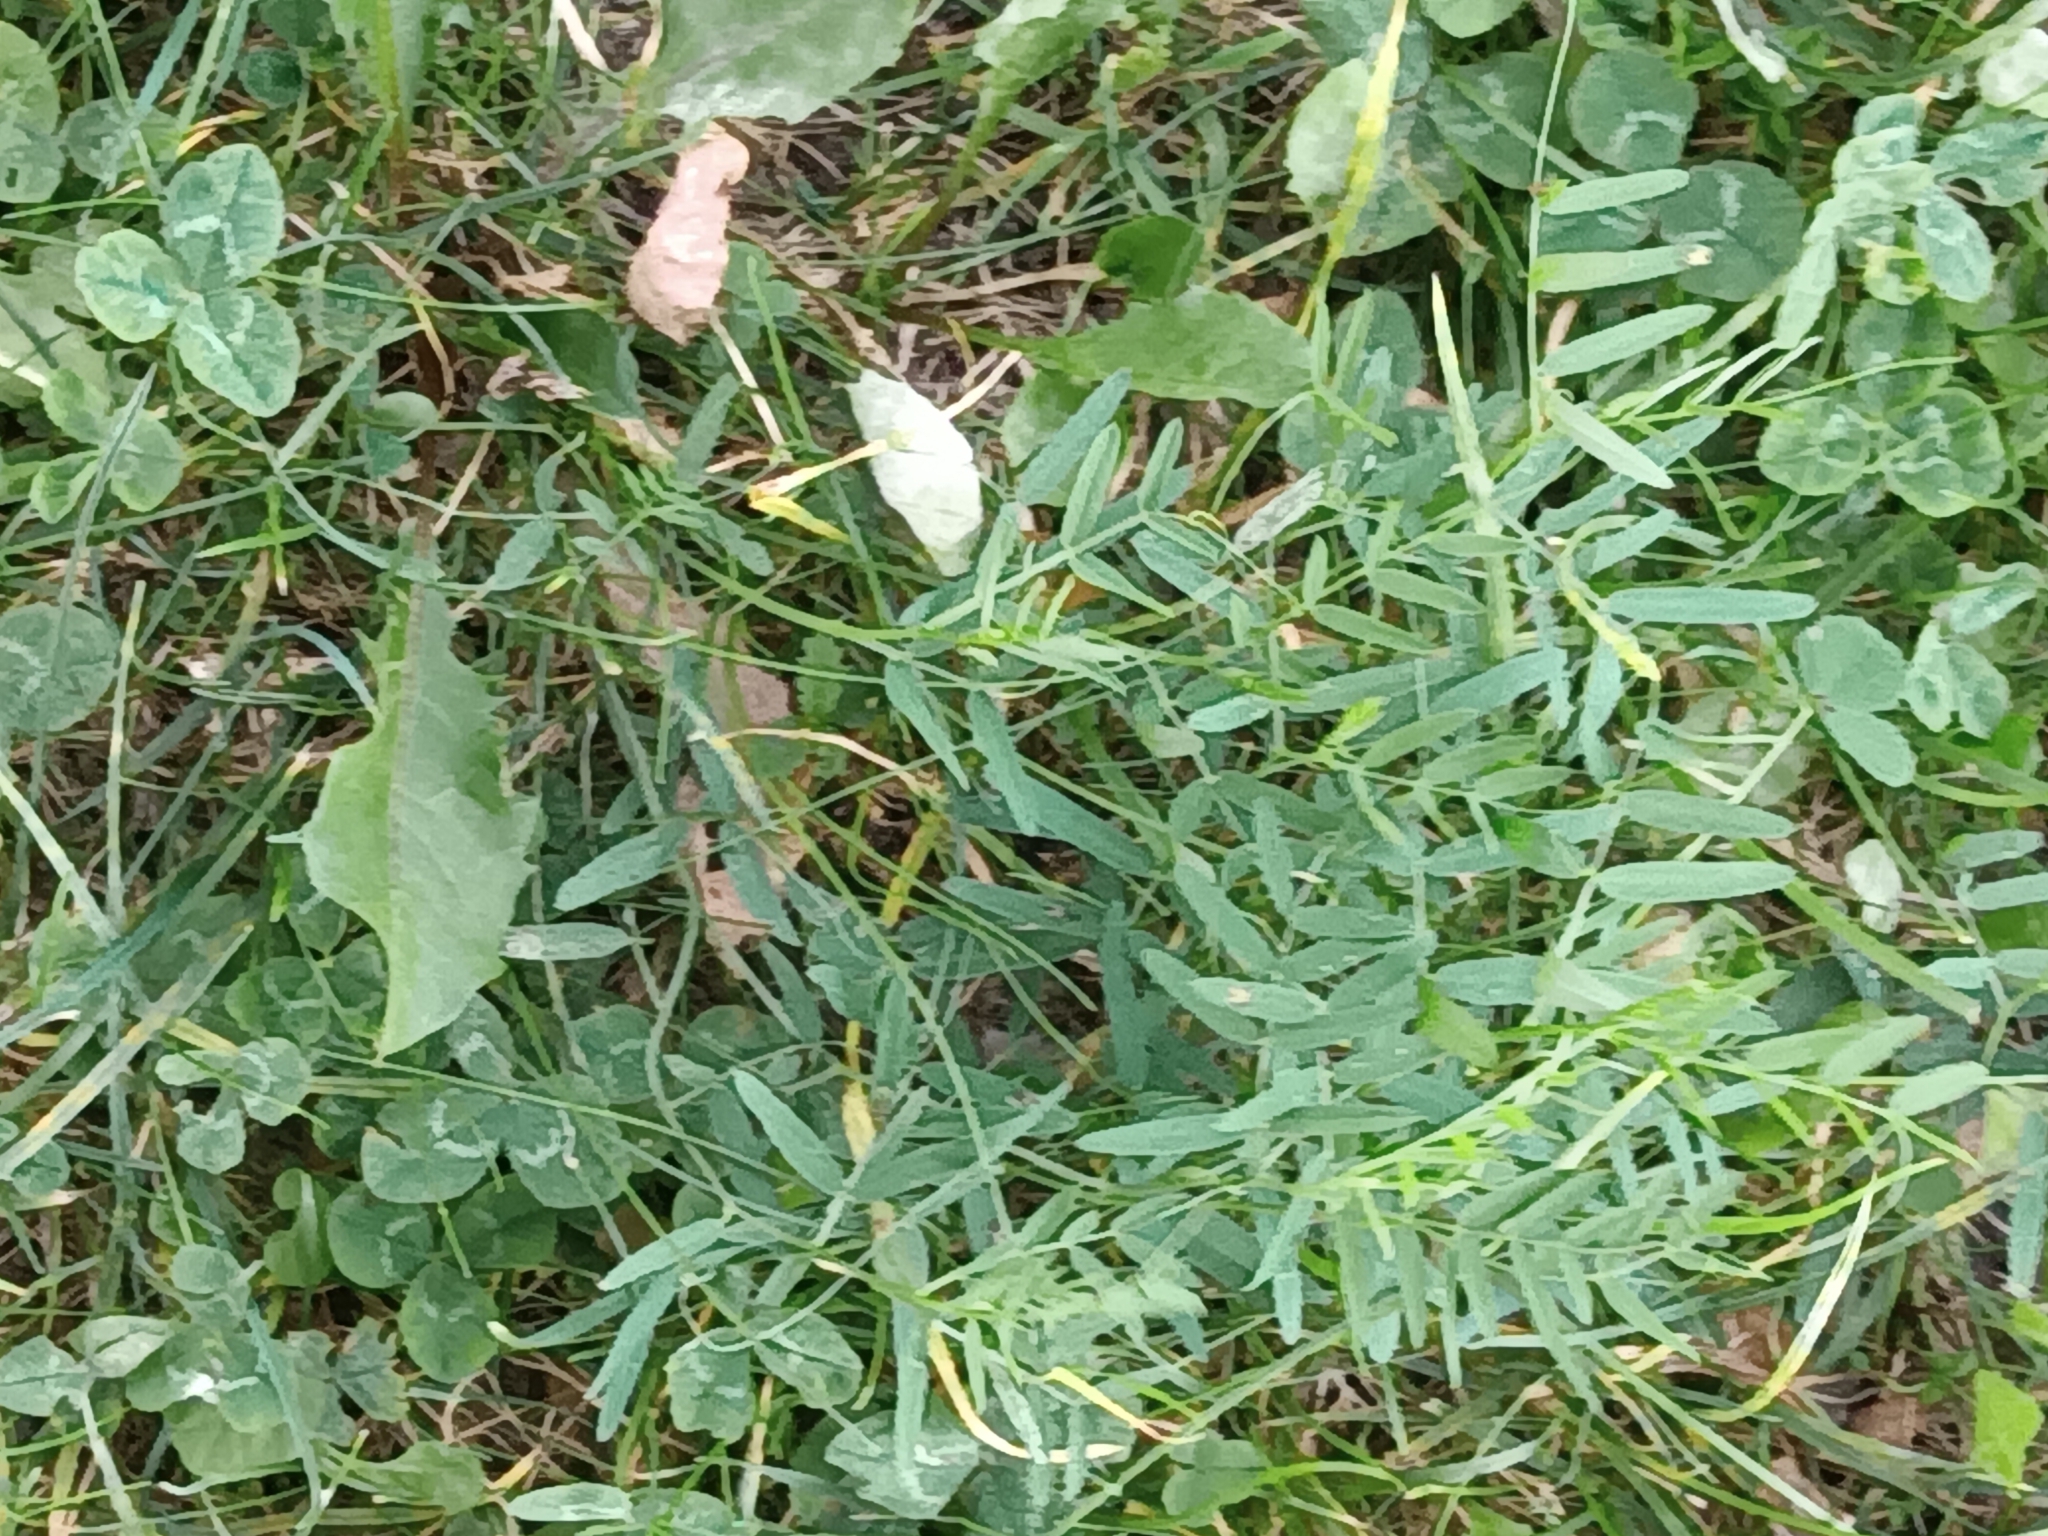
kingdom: Plantae
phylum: Tracheophyta
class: Magnoliopsida
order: Fabales
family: Fabaceae
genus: Vicia
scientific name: Vicia cracca
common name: Bird vetch
